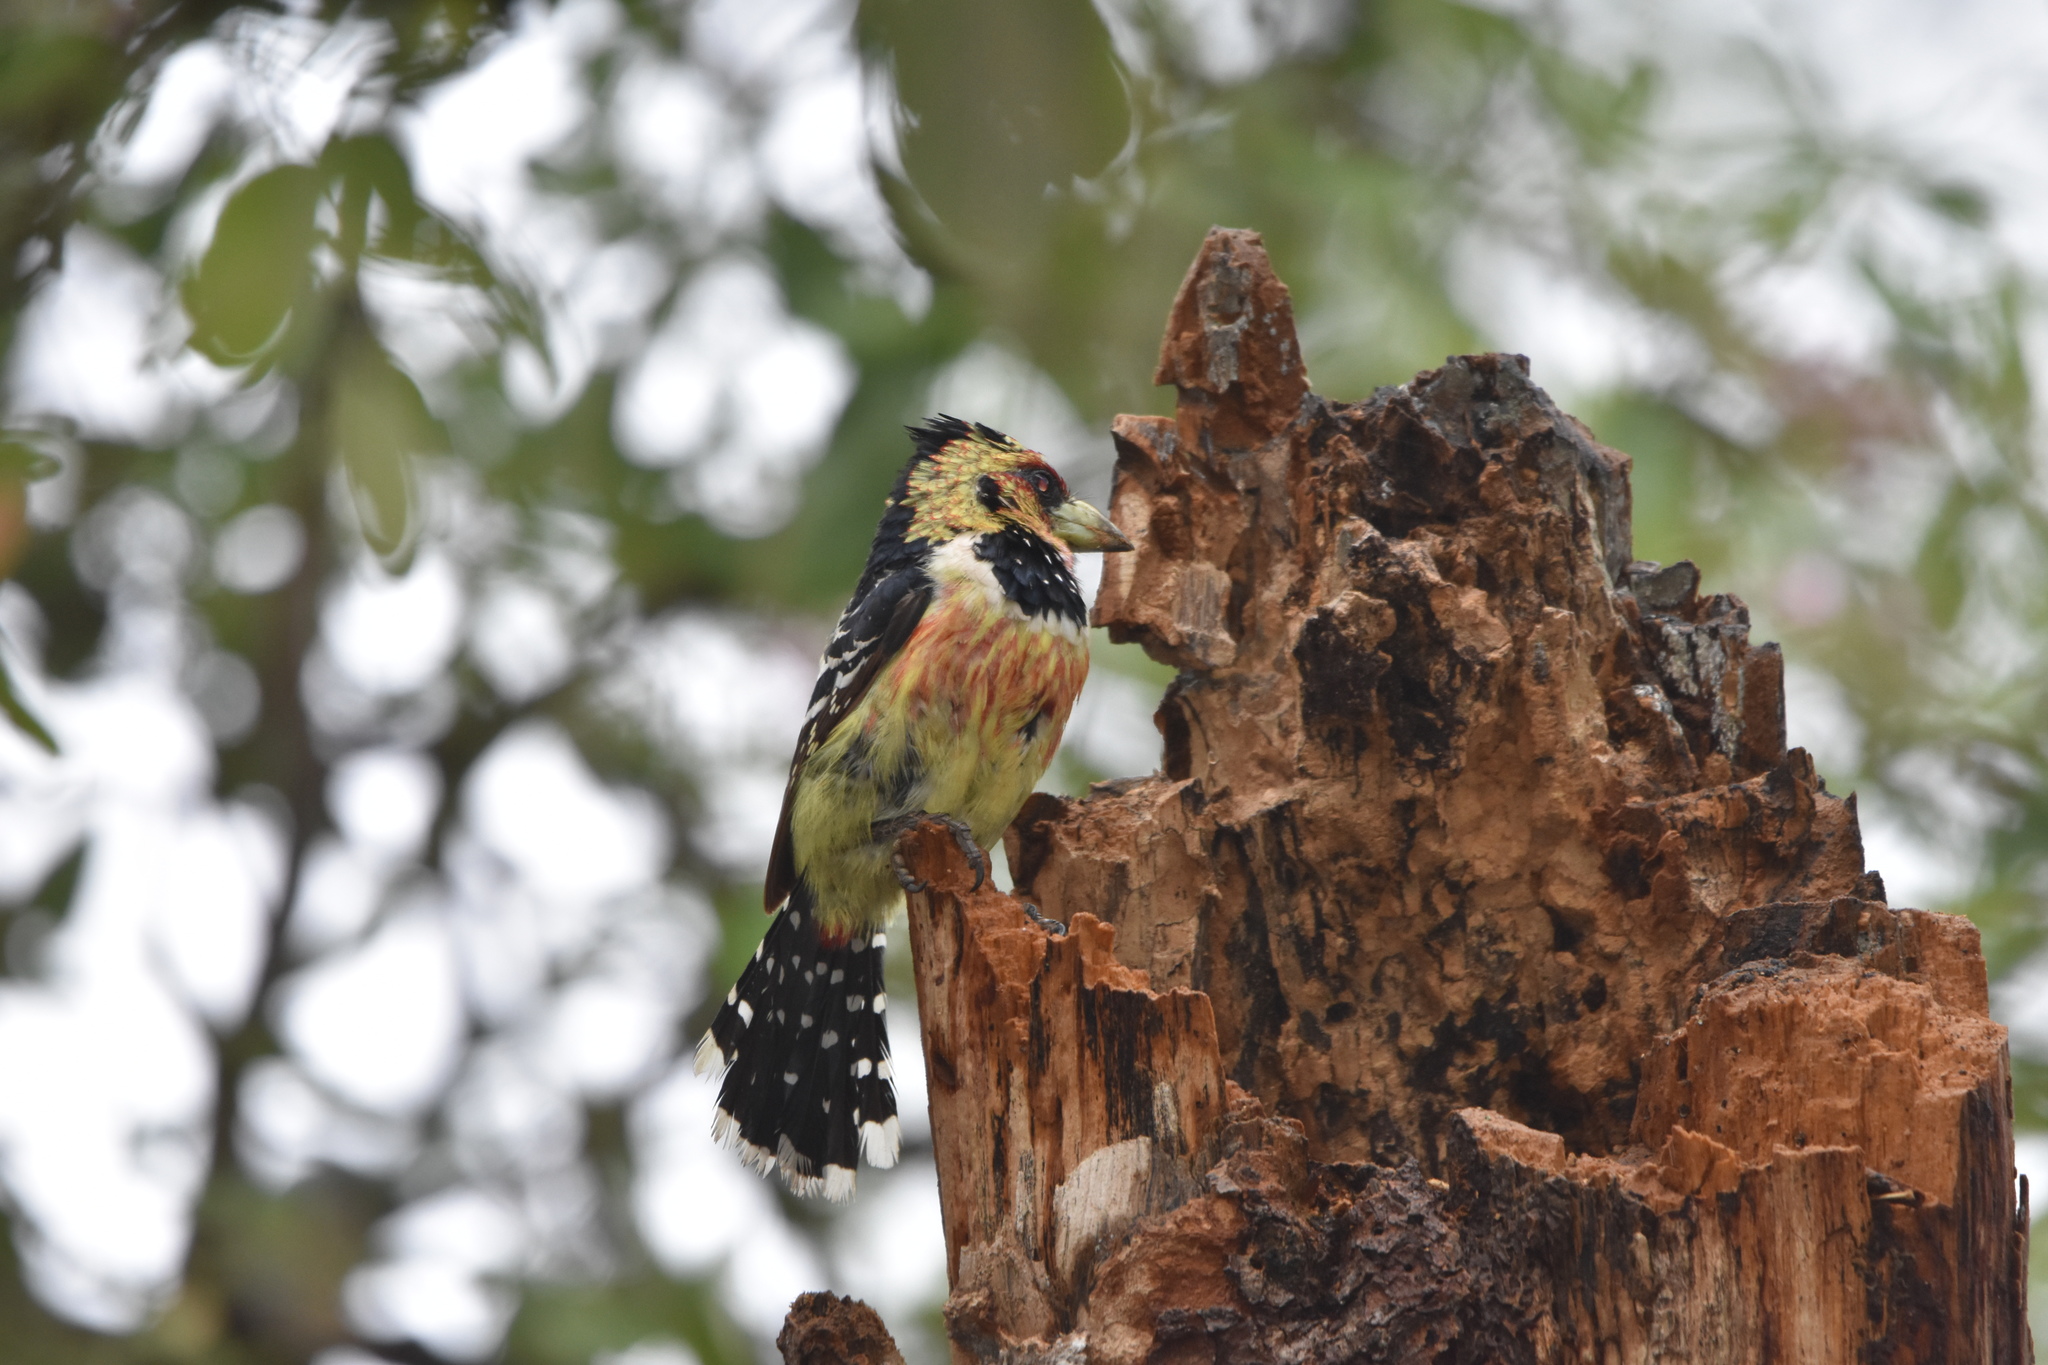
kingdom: Animalia
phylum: Chordata
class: Aves
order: Piciformes
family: Lybiidae
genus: Trachyphonus
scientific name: Trachyphonus vaillantii
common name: Crested barbet
